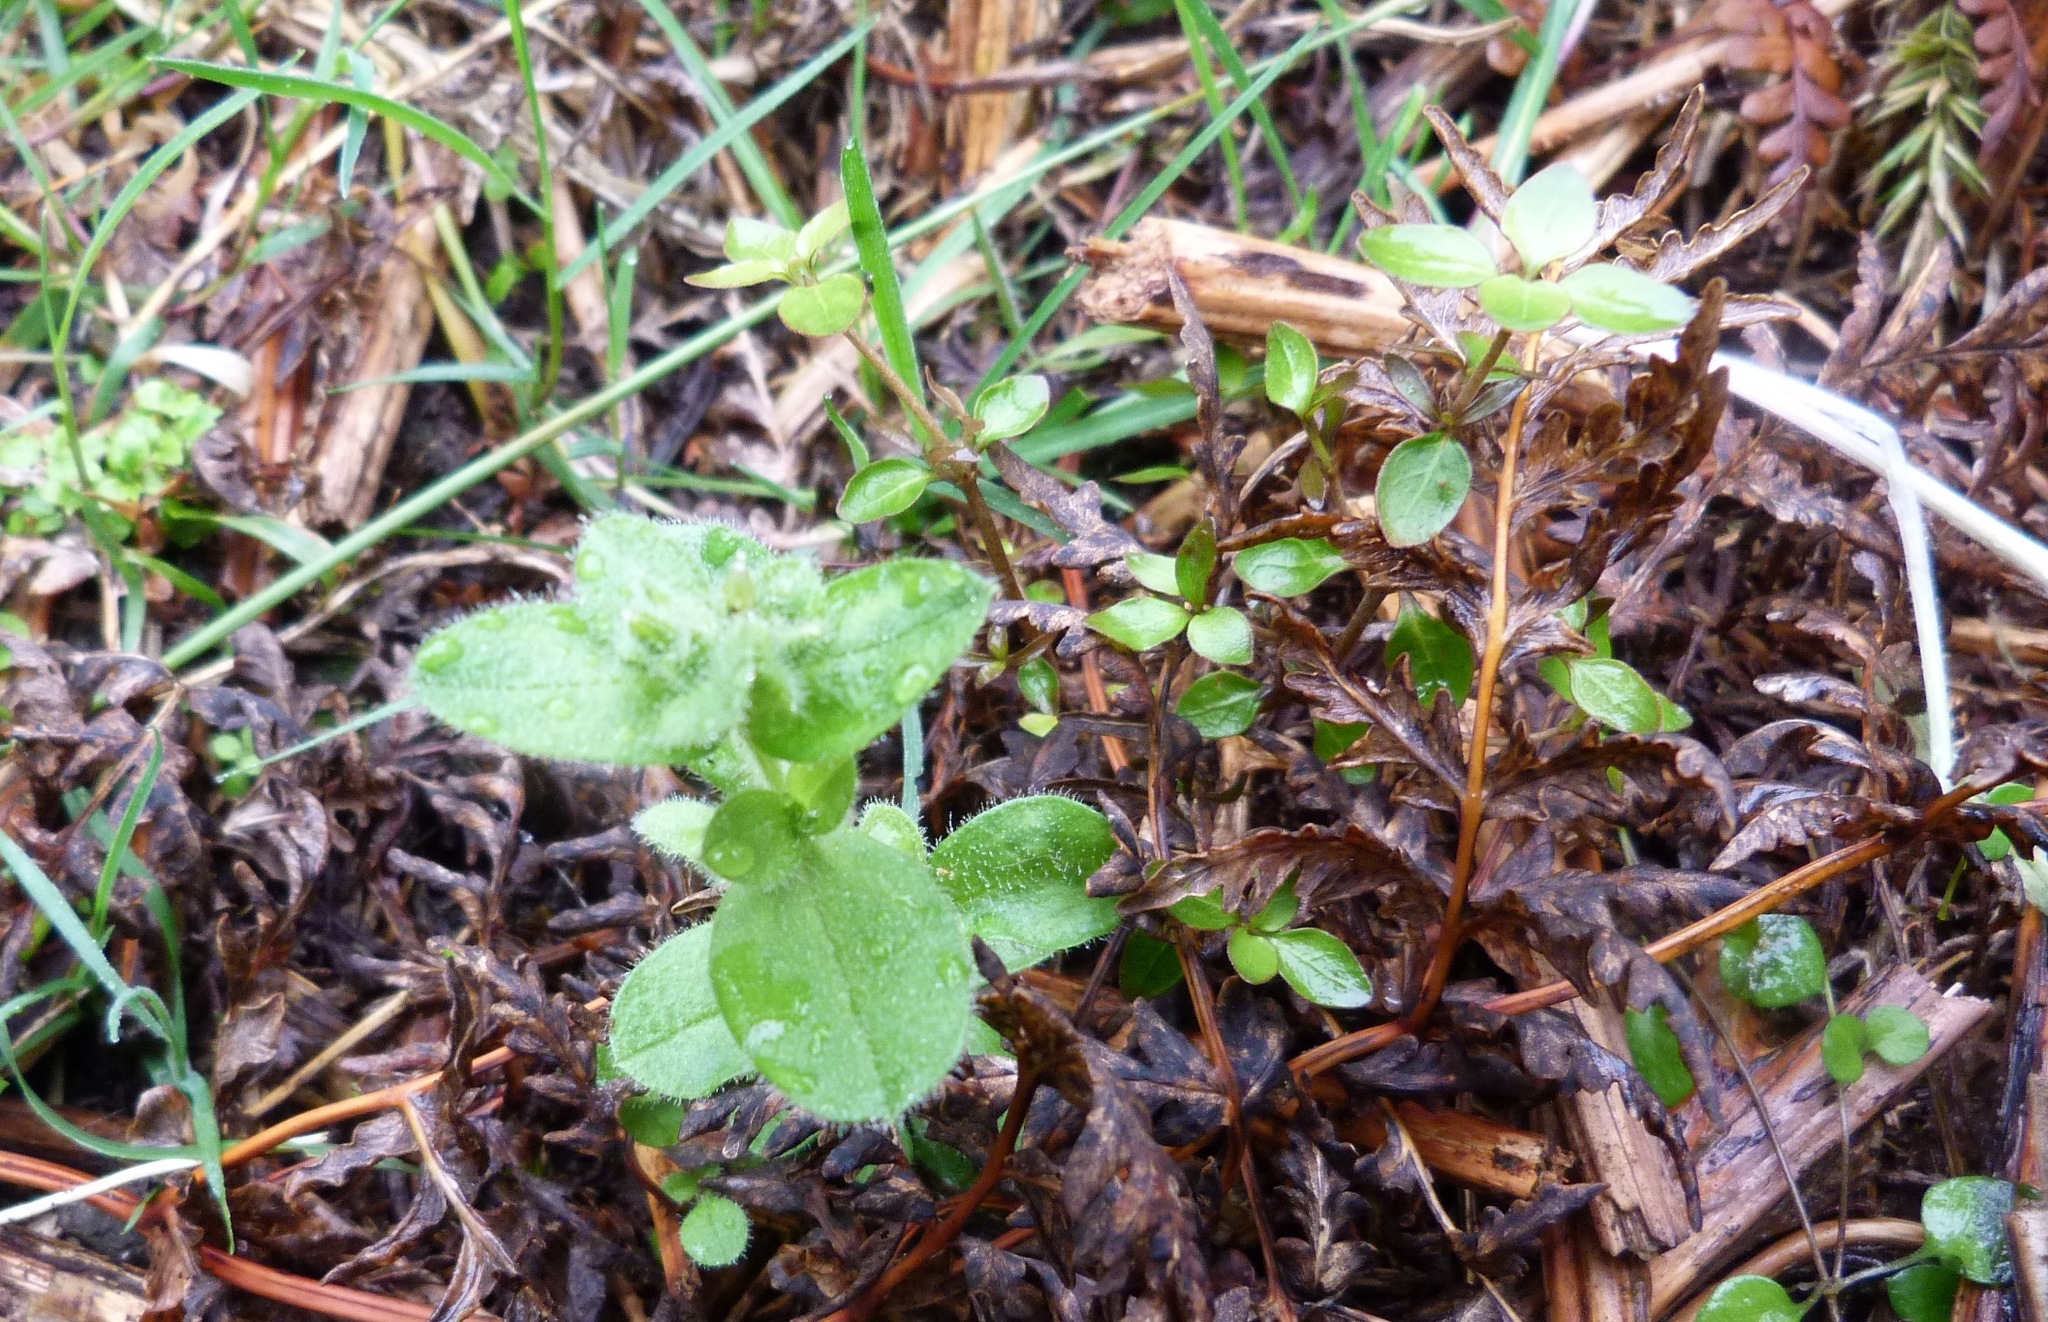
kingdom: Plantae
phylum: Tracheophyta
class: Magnoliopsida
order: Caryophyllales
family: Caryophyllaceae
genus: Cerastium
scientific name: Cerastium glomeratum
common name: Sticky chickweed
